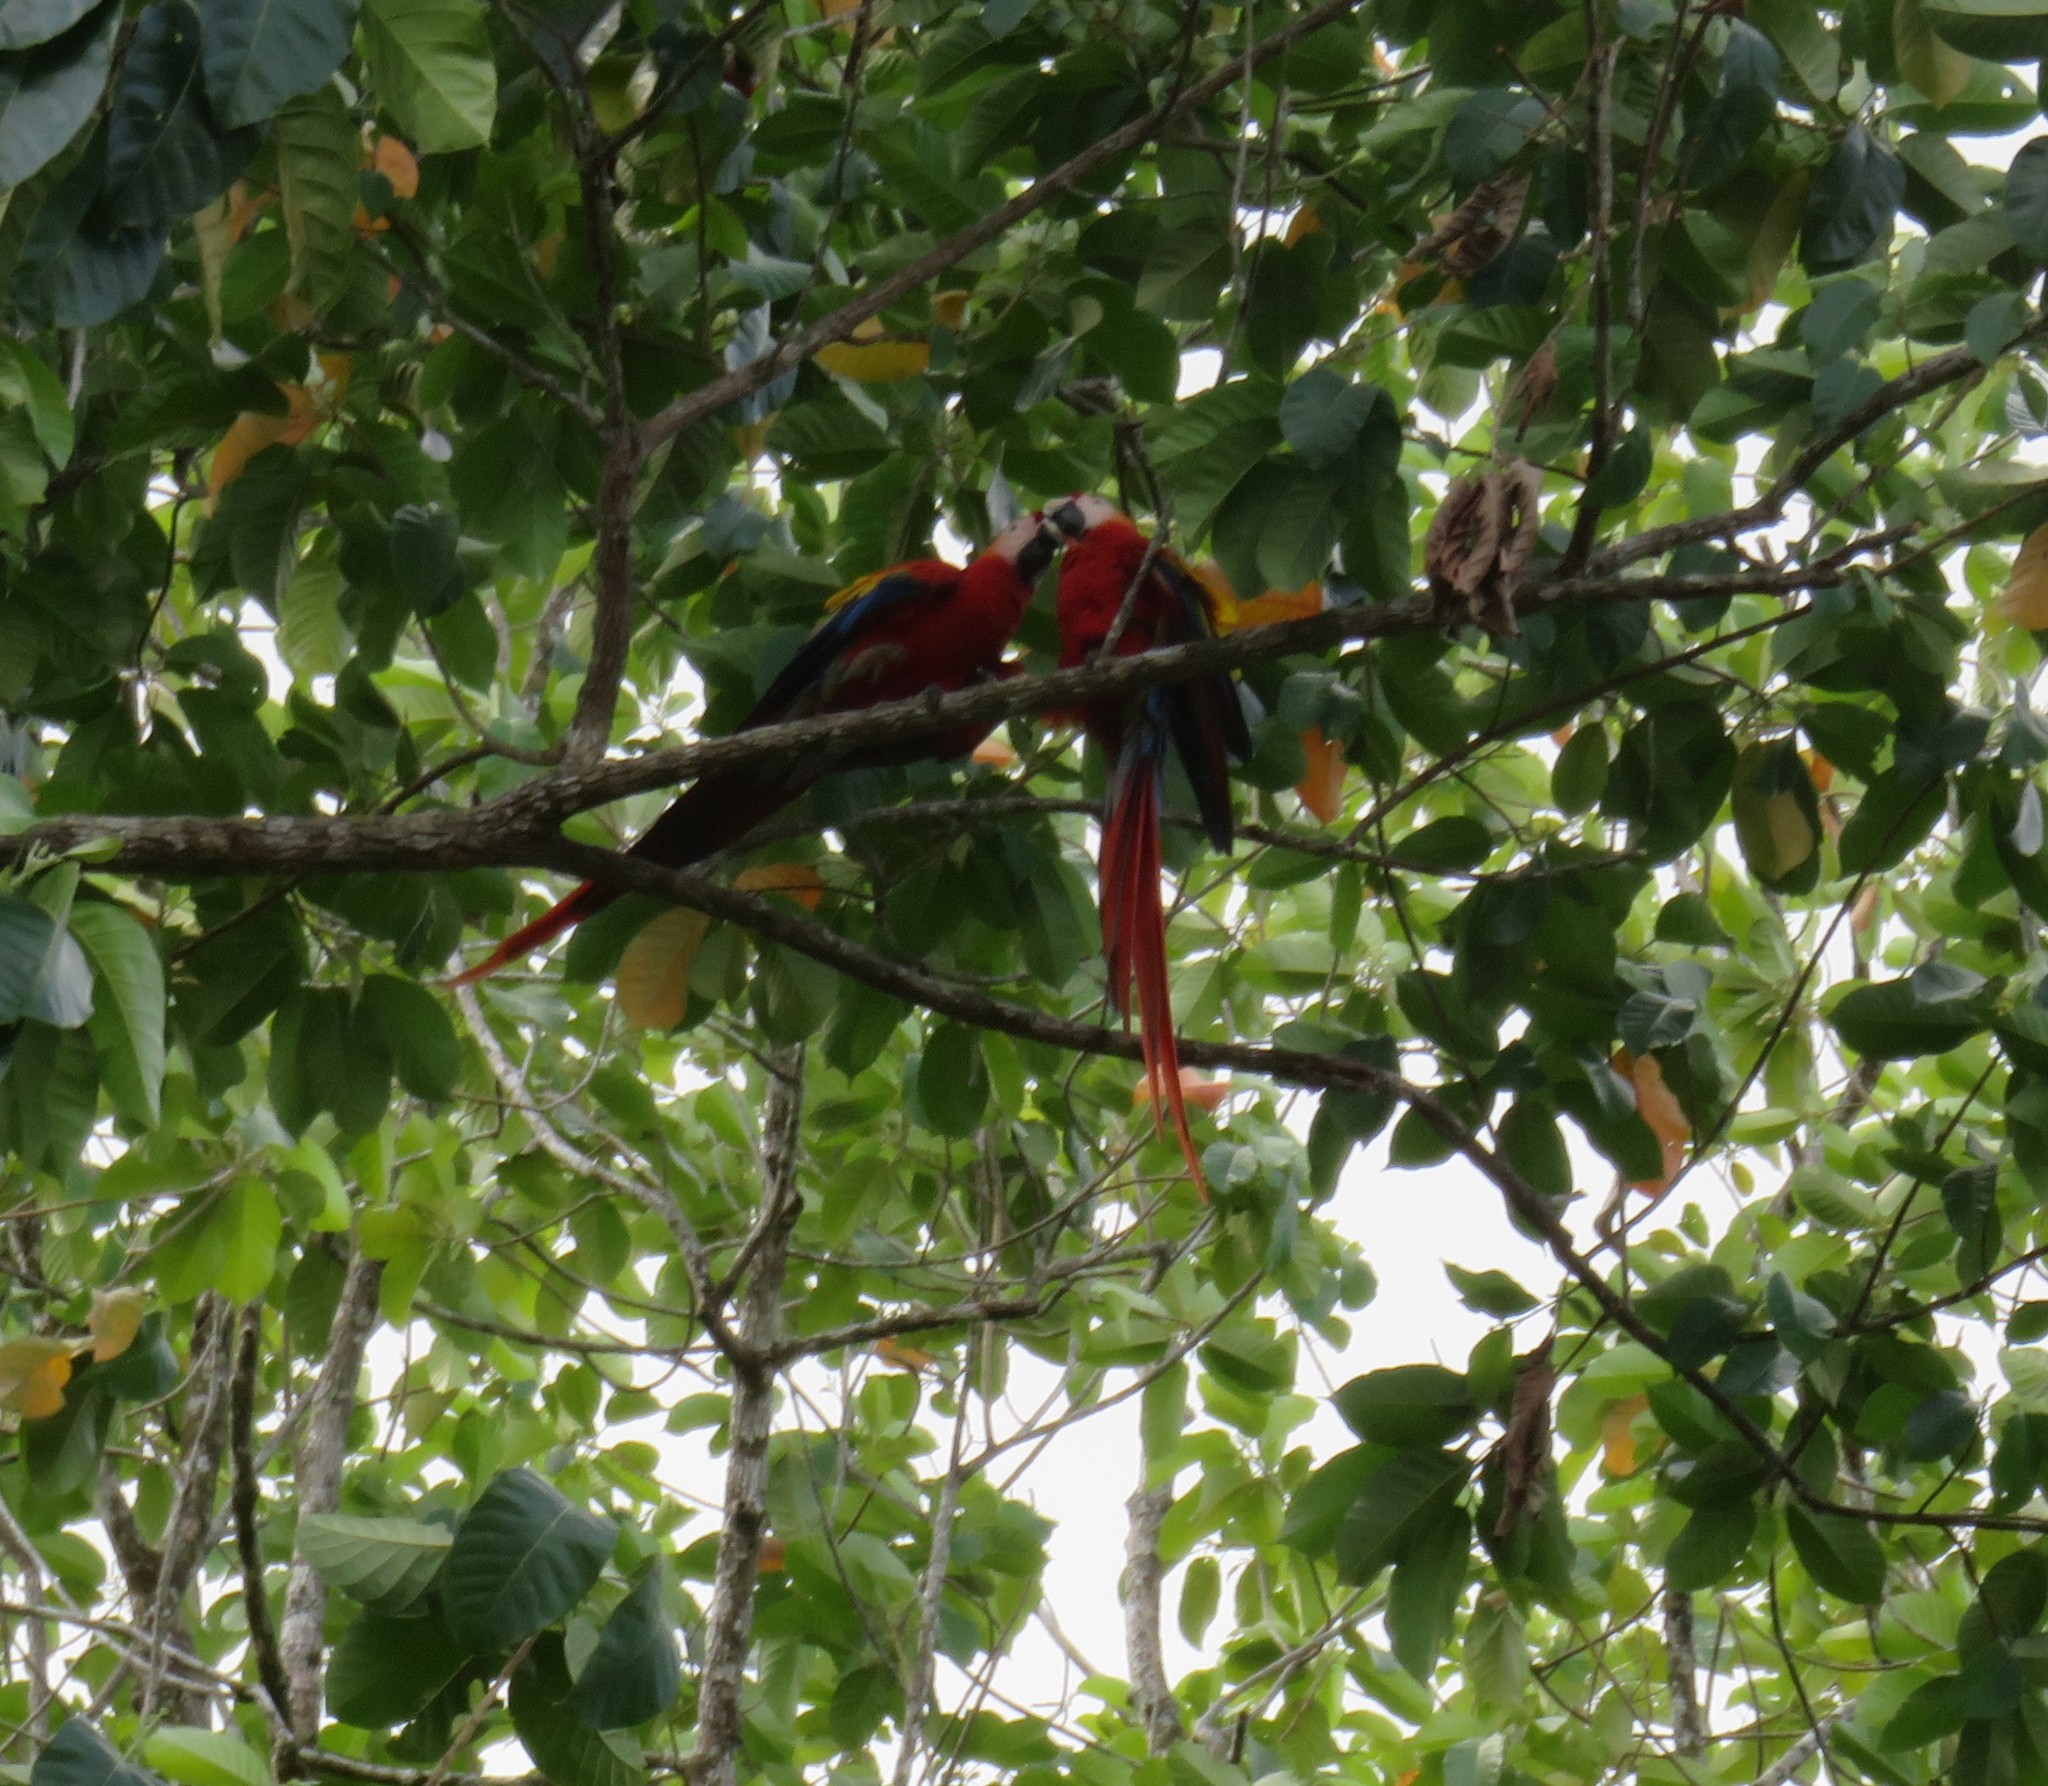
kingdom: Animalia
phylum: Chordata
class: Aves
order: Psittaciformes
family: Psittacidae
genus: Ara
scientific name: Ara macao
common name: Scarlet macaw
